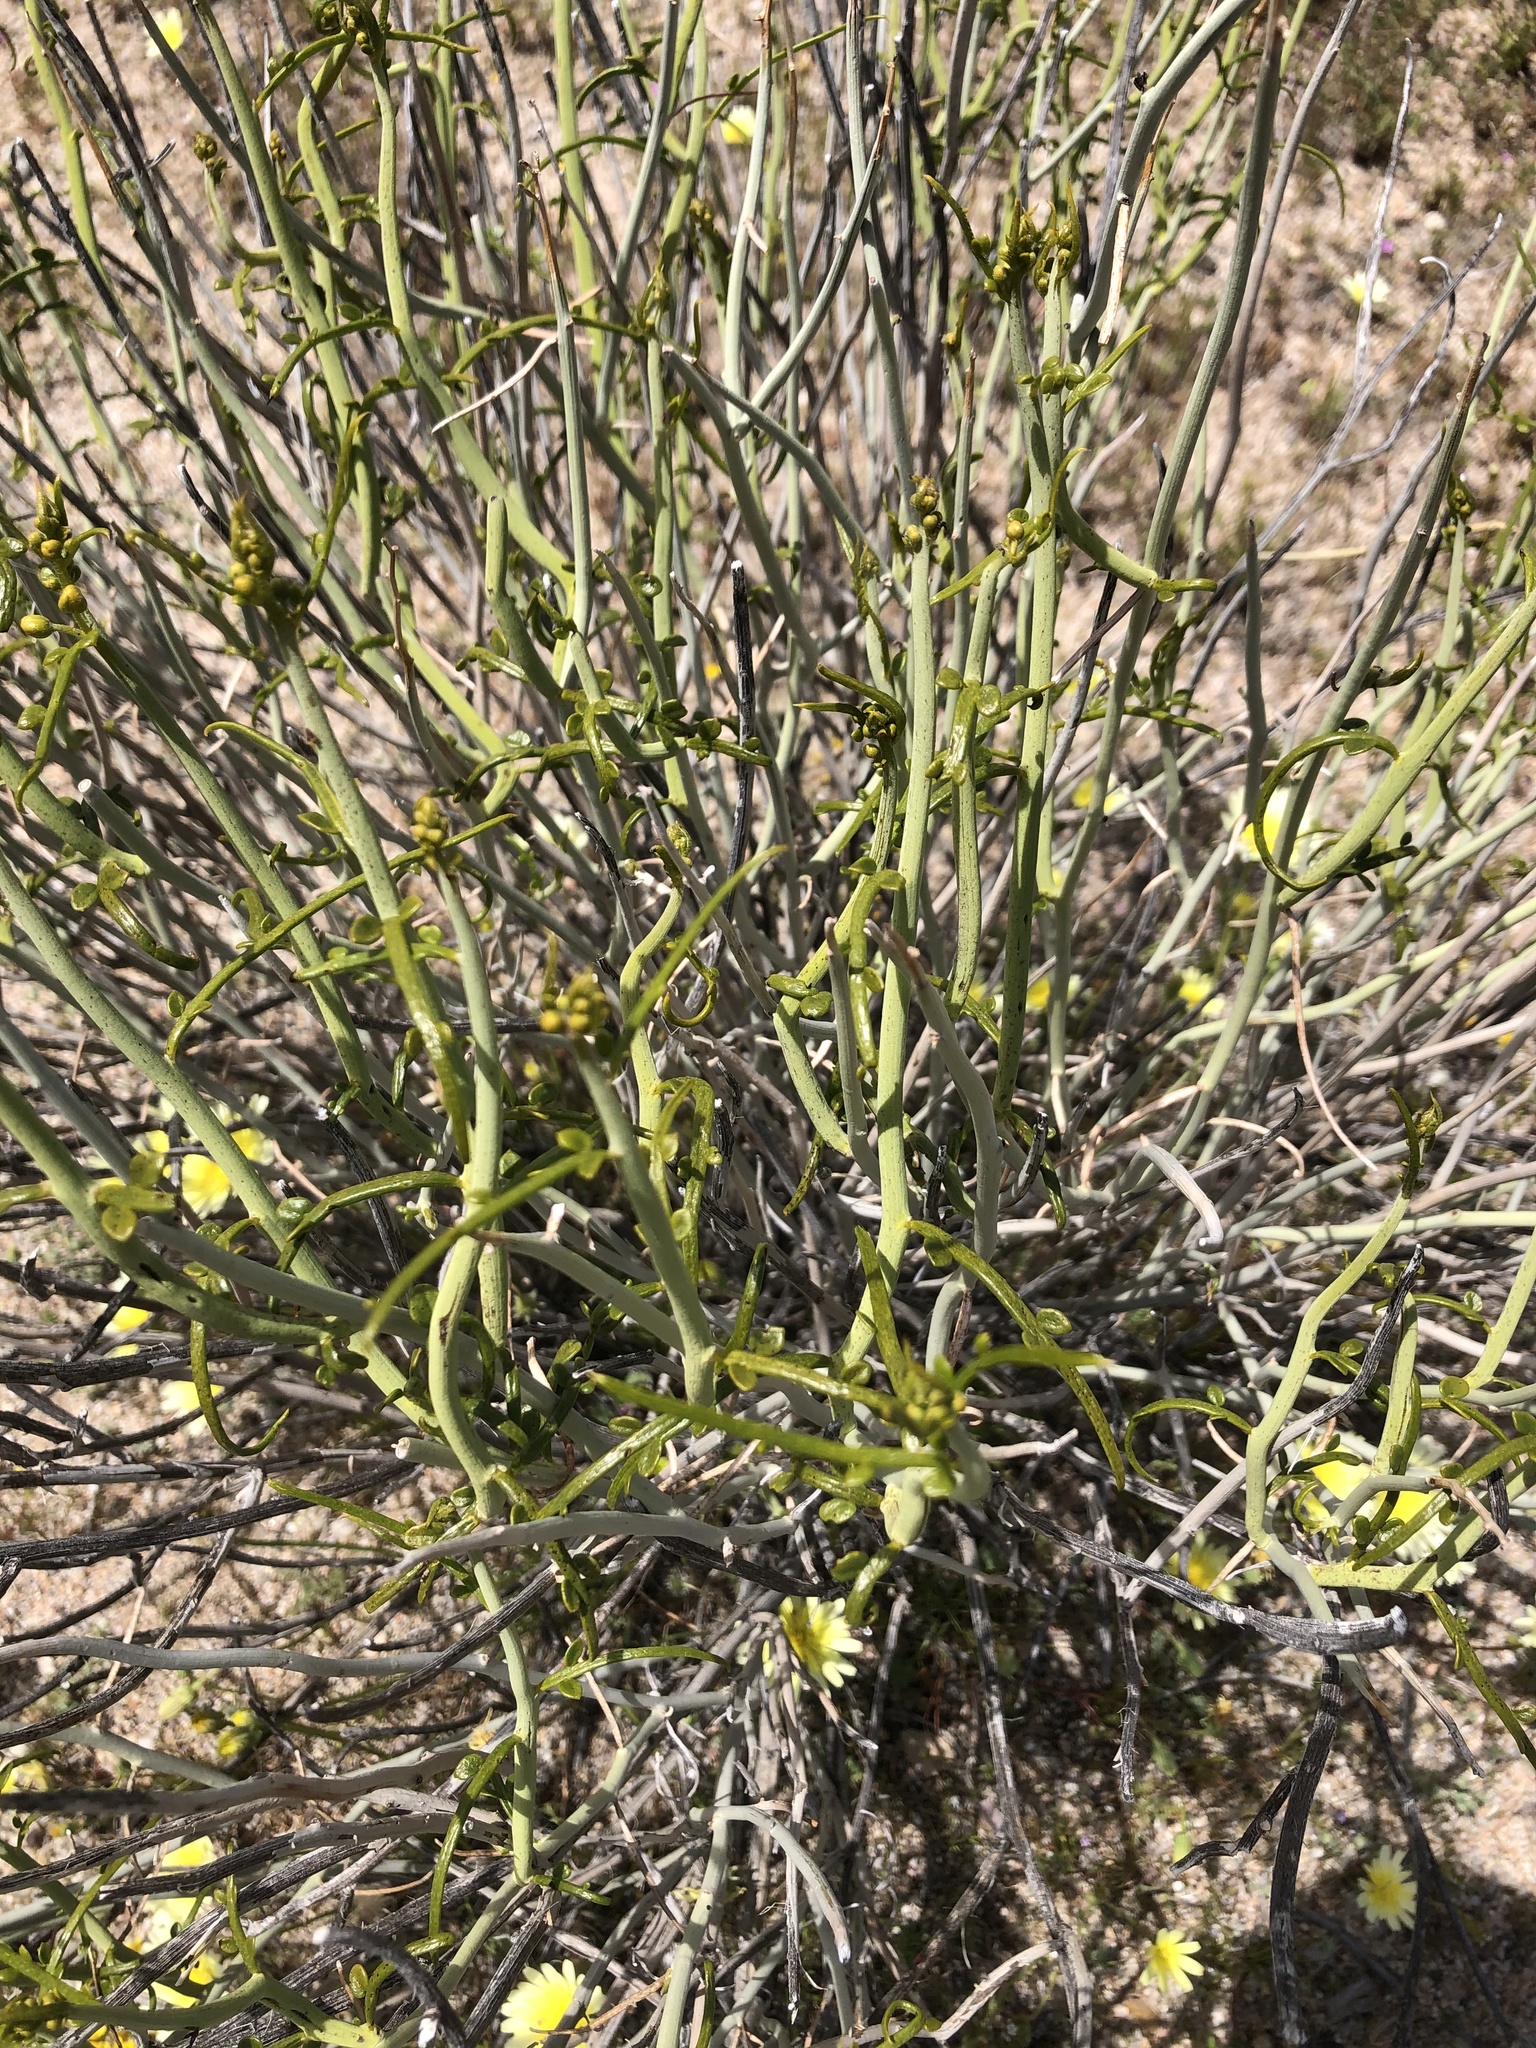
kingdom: Plantae
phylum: Tracheophyta
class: Magnoliopsida
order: Fabales
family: Fabaceae
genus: Senna
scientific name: Senna armata
